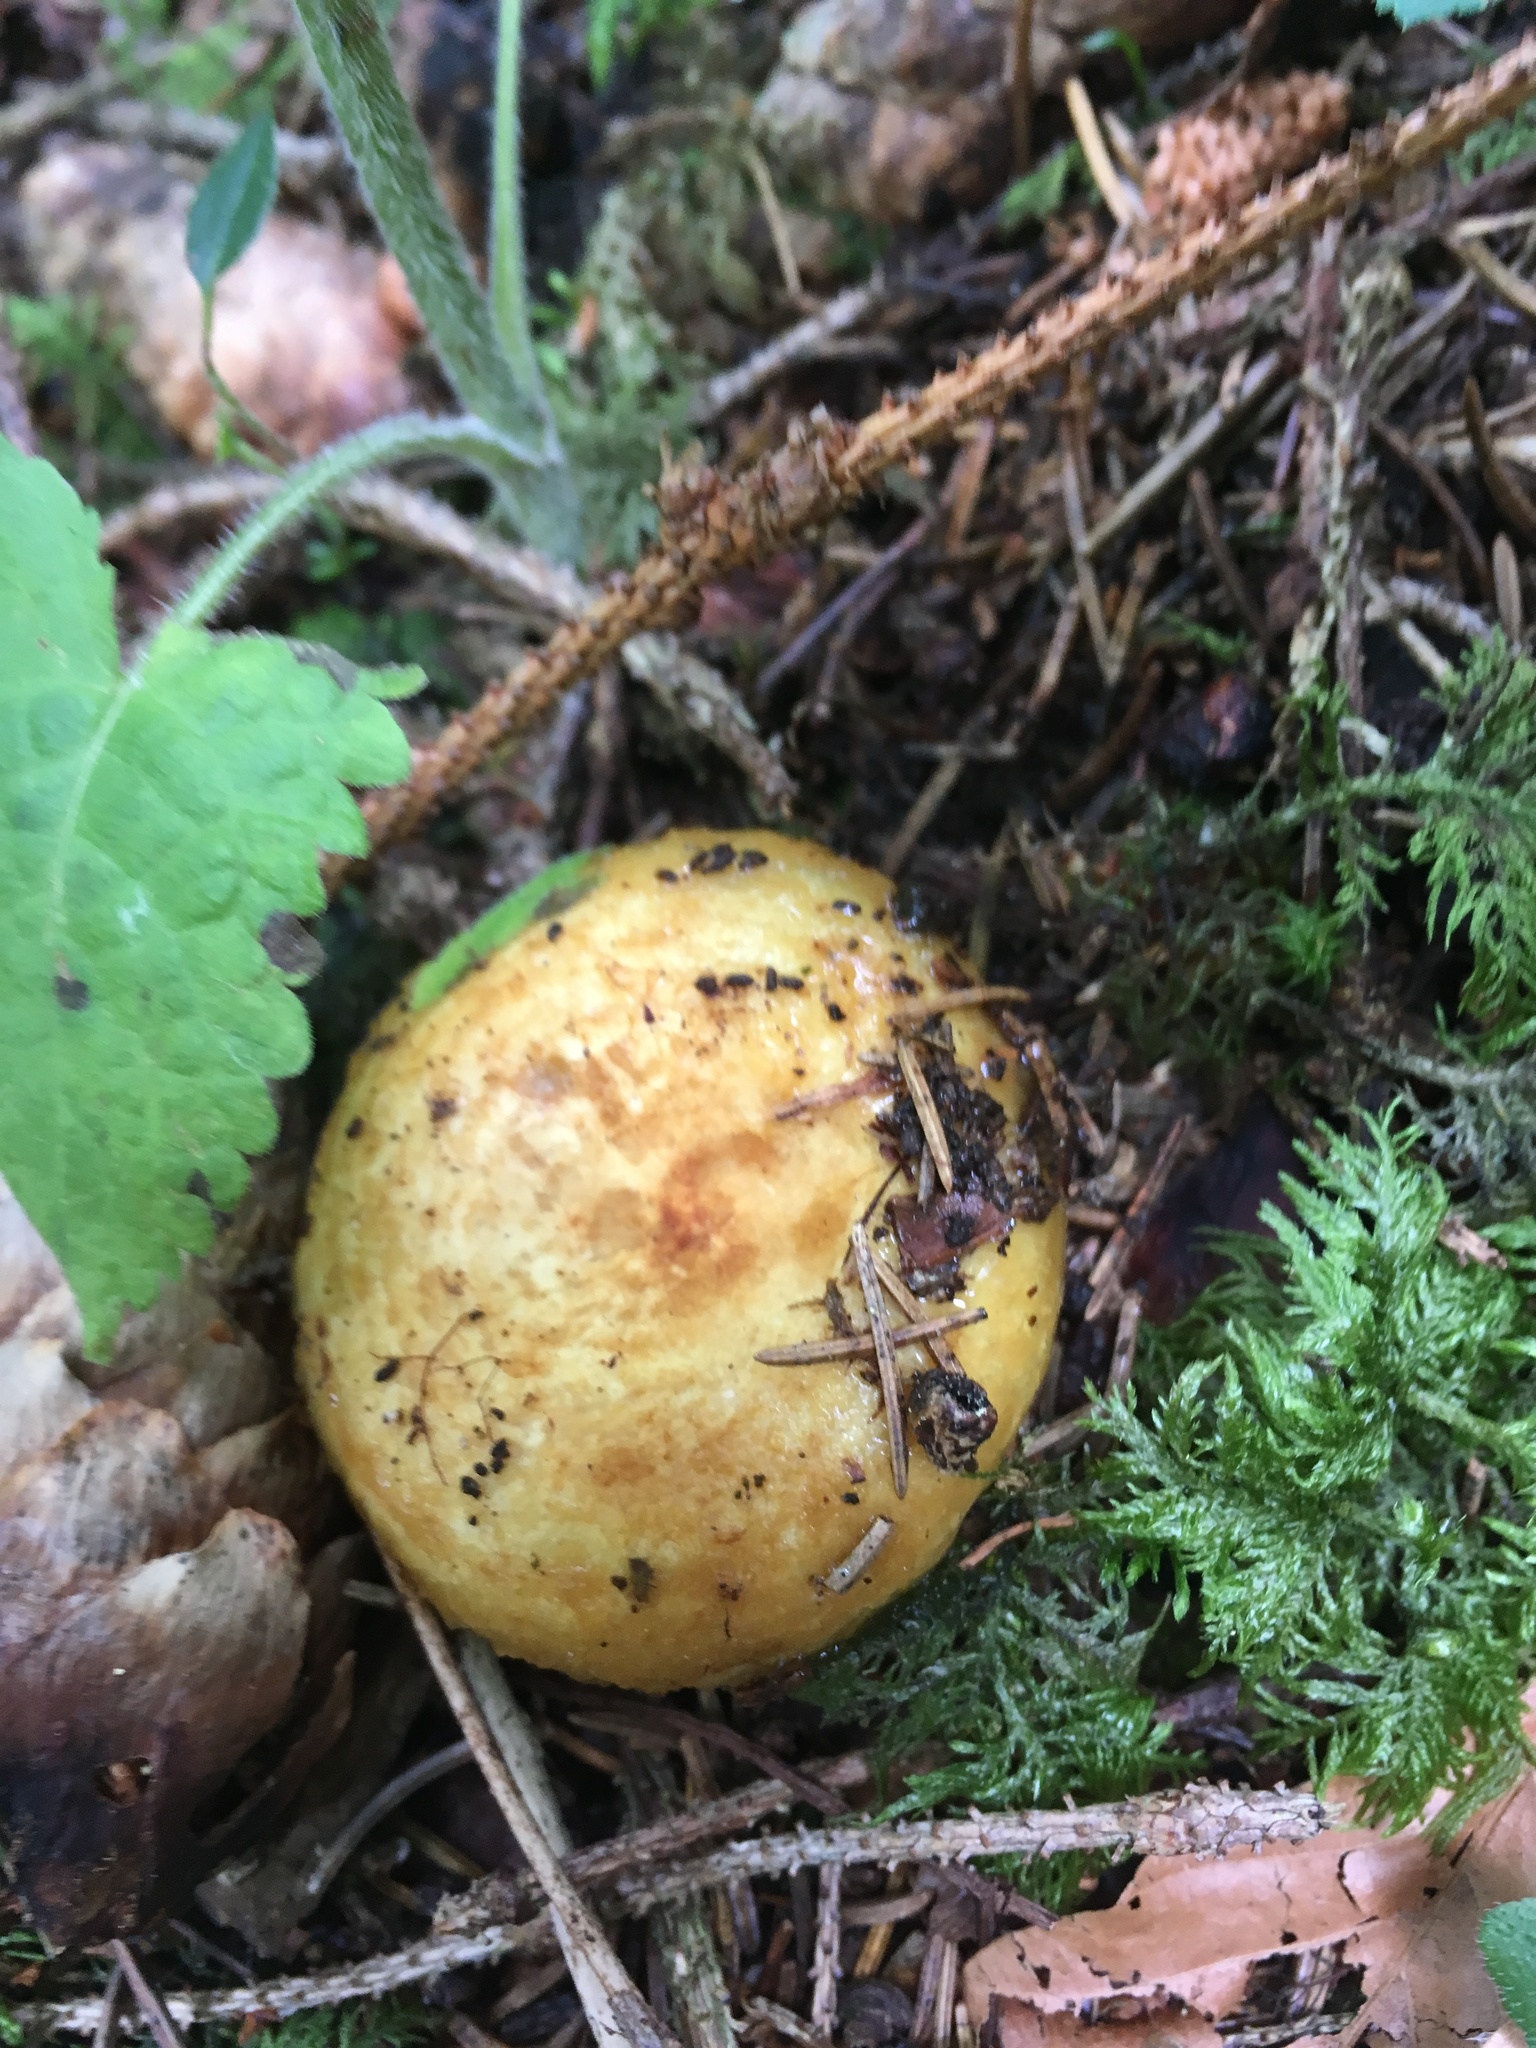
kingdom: Fungi
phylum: Basidiomycota
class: Agaricomycetes
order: Russulales
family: Russulaceae
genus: Lactarius
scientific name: Lactarius scrobiculatus
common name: Spotted milkcap
